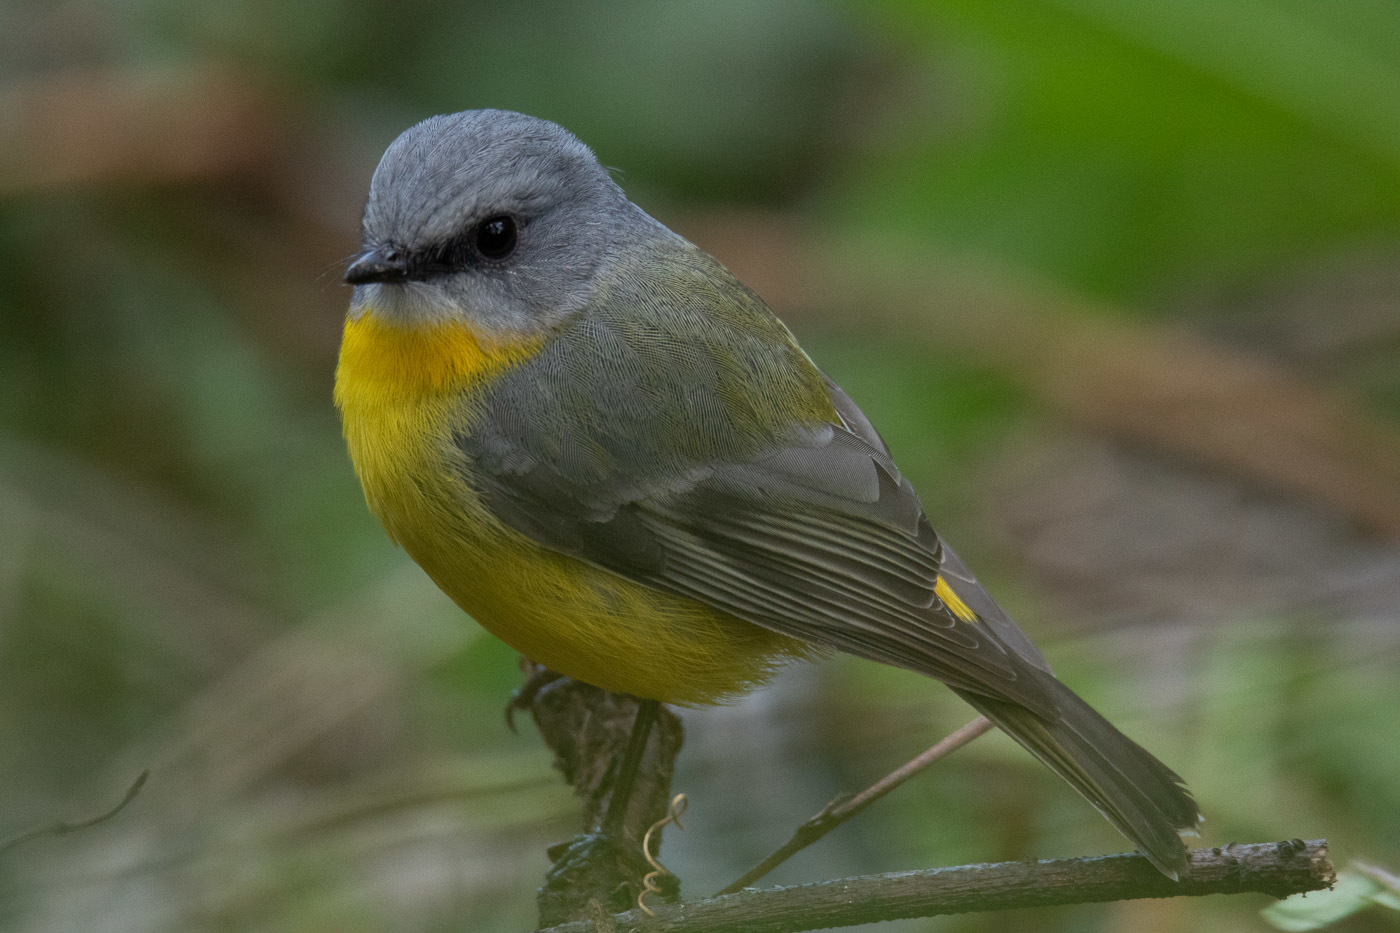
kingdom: Animalia
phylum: Chordata
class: Aves
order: Passeriformes
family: Petroicidae
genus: Eopsaltria
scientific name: Eopsaltria australis
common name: Eastern yellow robin
